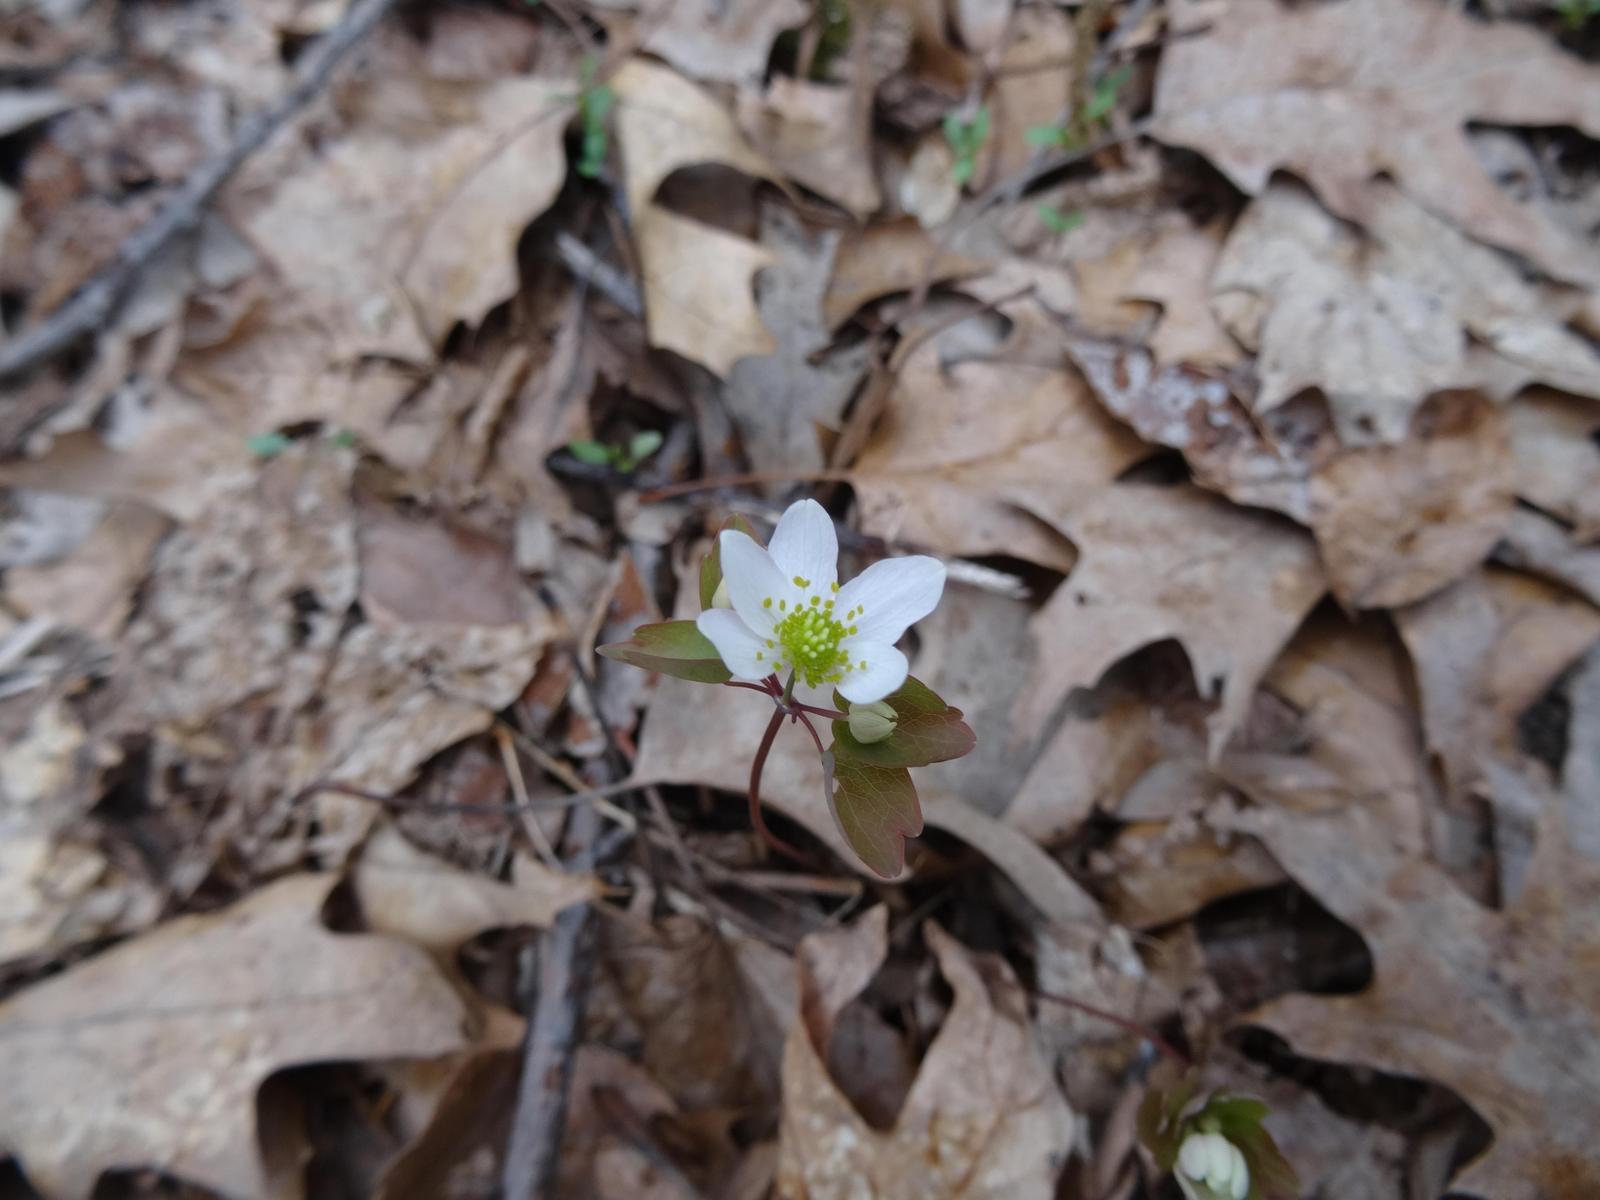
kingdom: Plantae
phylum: Tracheophyta
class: Magnoliopsida
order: Ranunculales
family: Ranunculaceae
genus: Thalictrum
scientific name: Thalictrum thalictroides
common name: Rue-anemone
